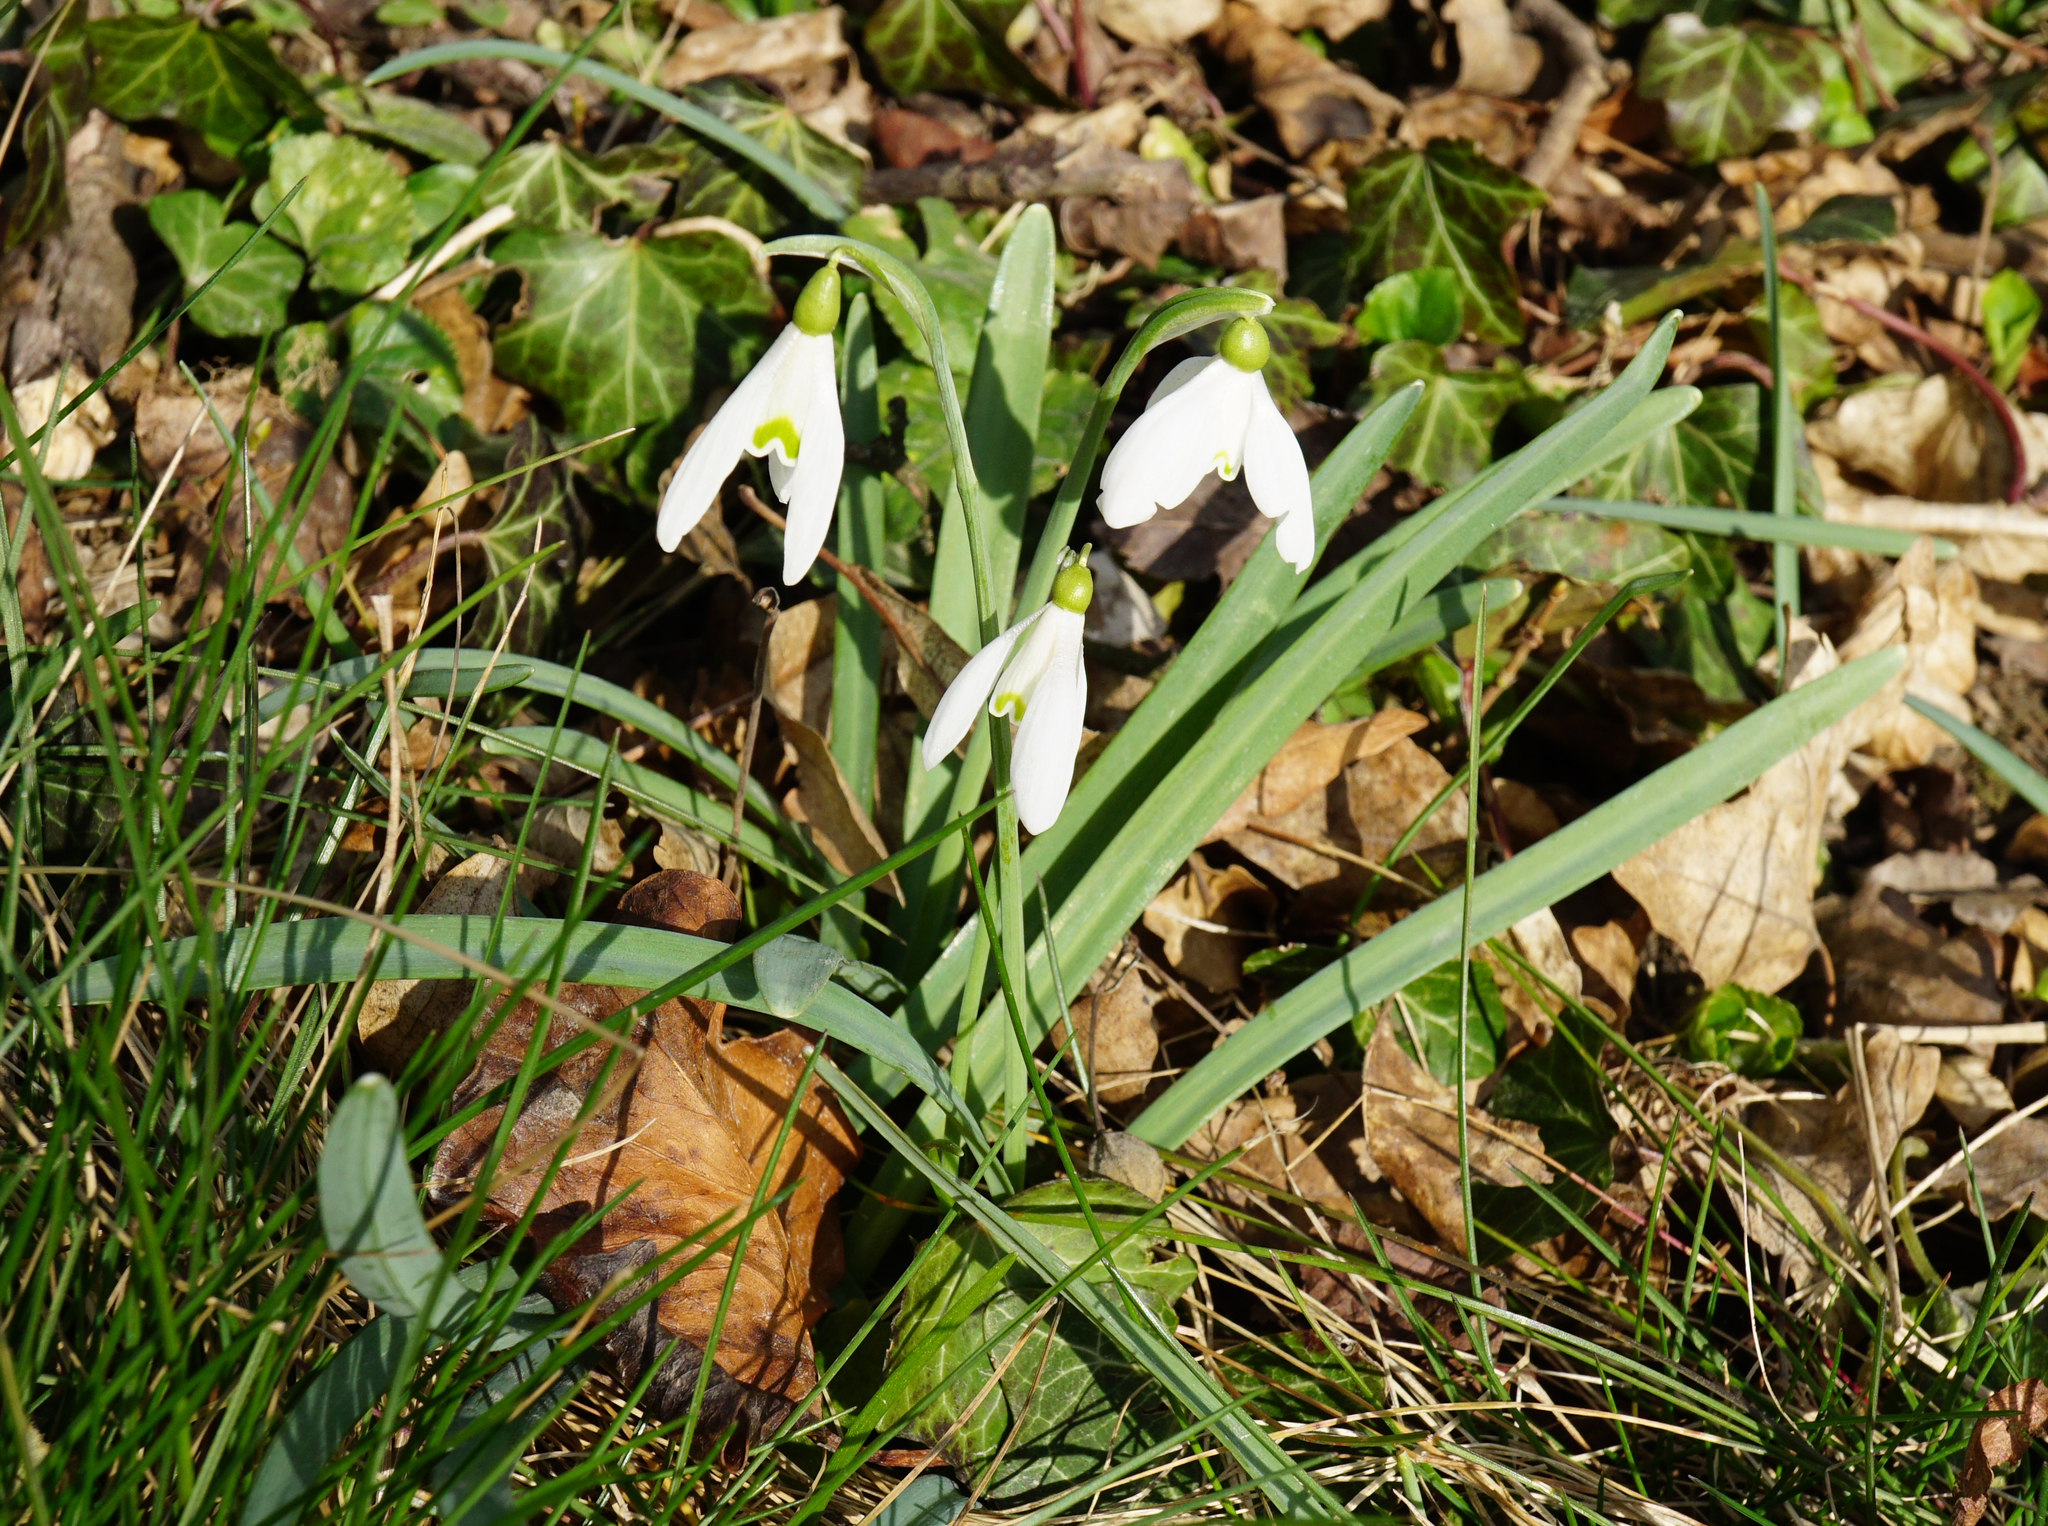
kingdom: Plantae
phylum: Tracheophyta
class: Liliopsida
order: Asparagales
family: Amaryllidaceae
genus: Galanthus
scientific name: Galanthus nivalis
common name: Snowdrop
